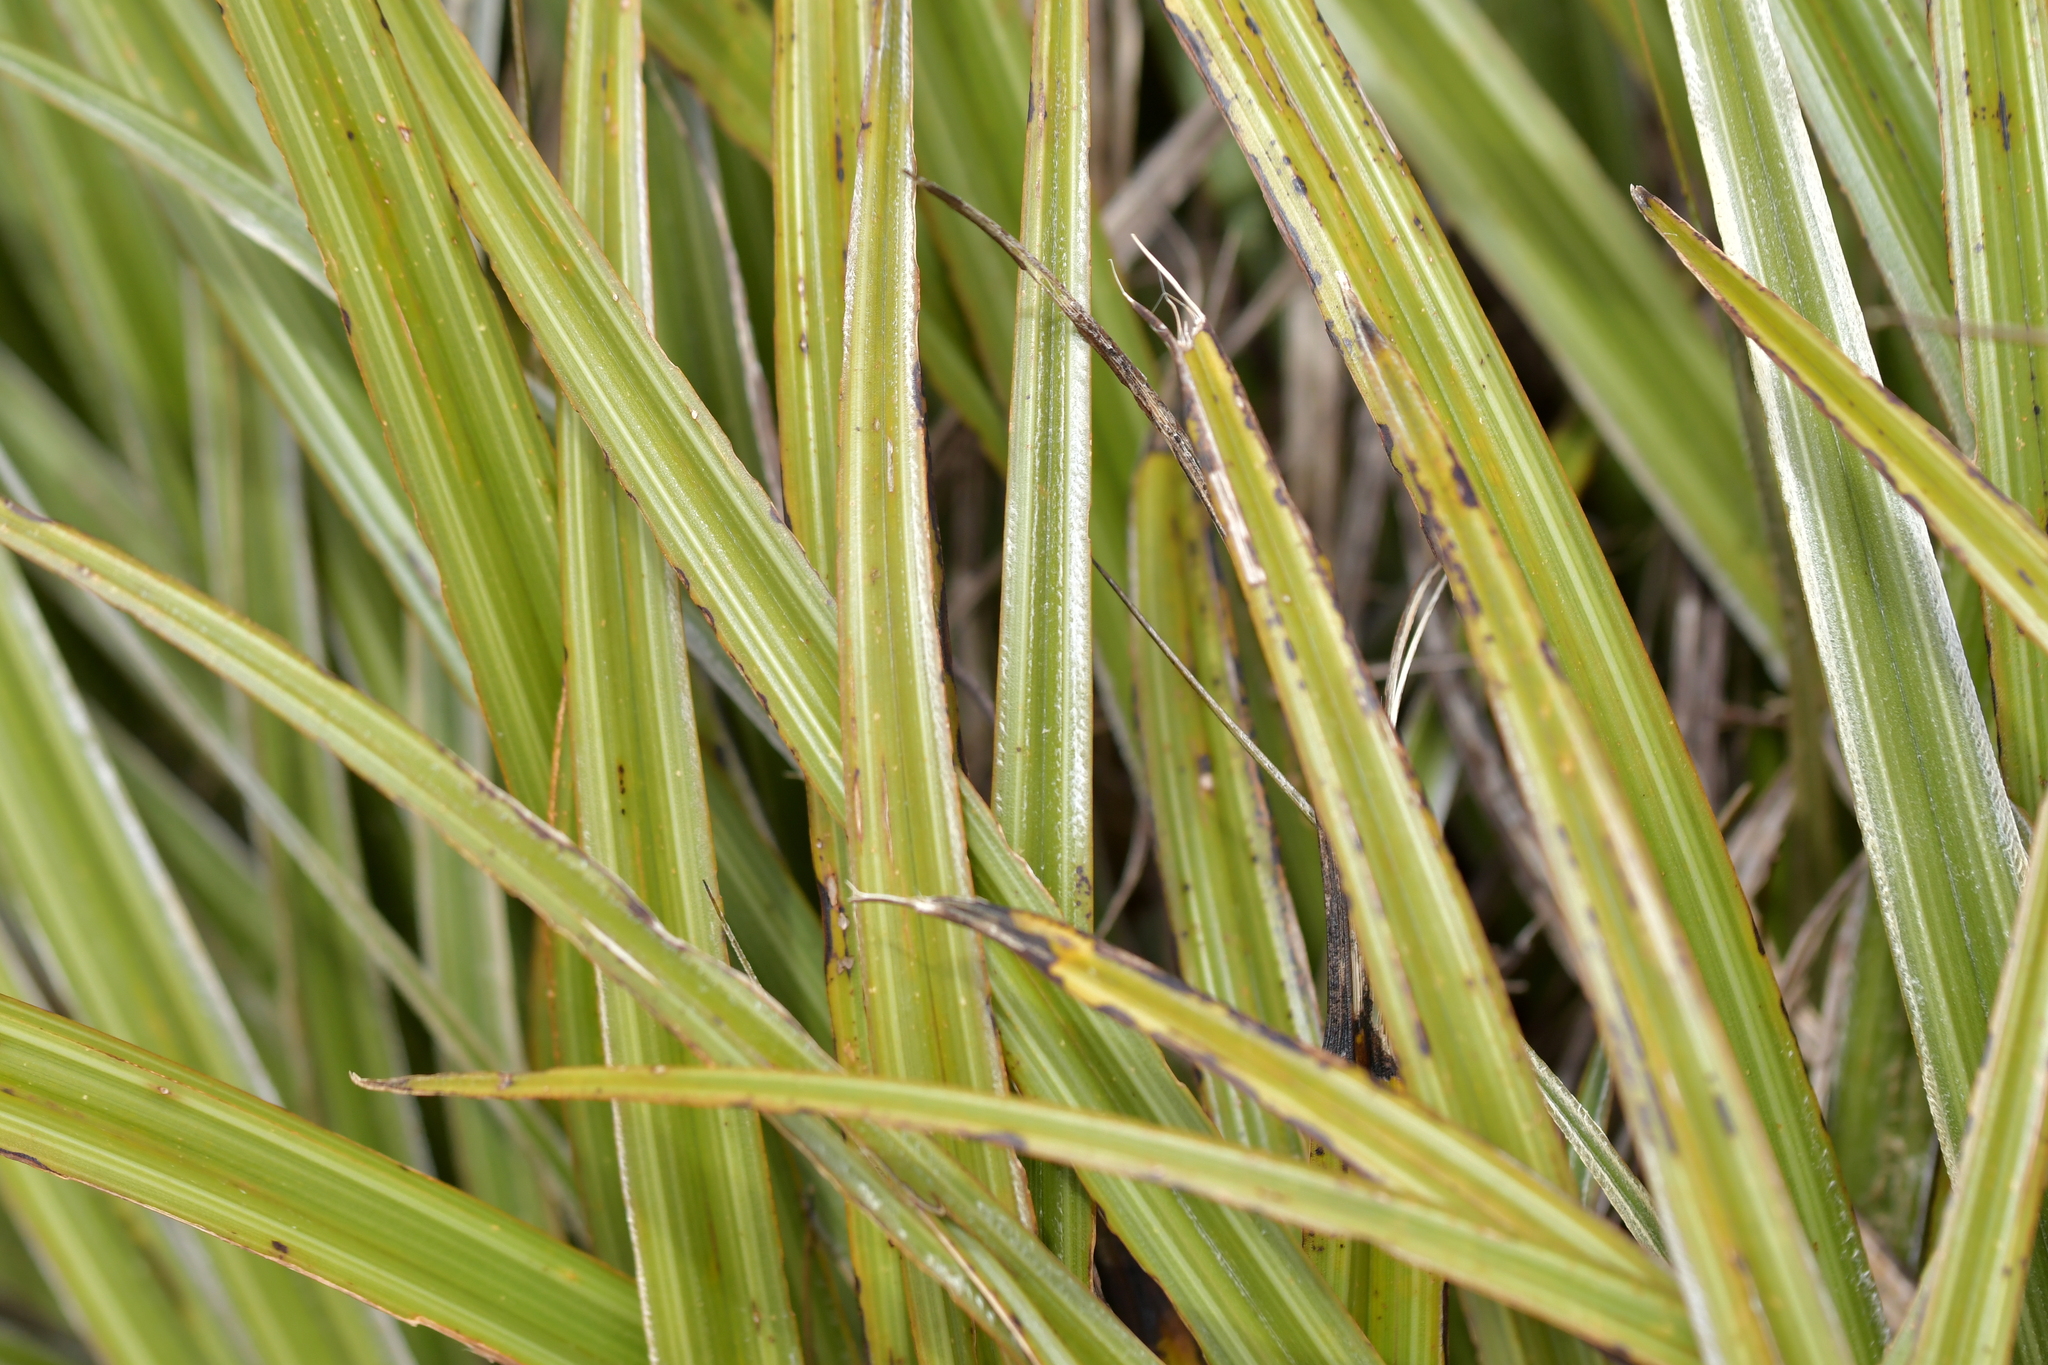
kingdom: Plantae
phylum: Tracheophyta
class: Liliopsida
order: Asparagales
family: Asteliaceae
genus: Astelia
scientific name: Astelia nervosa
